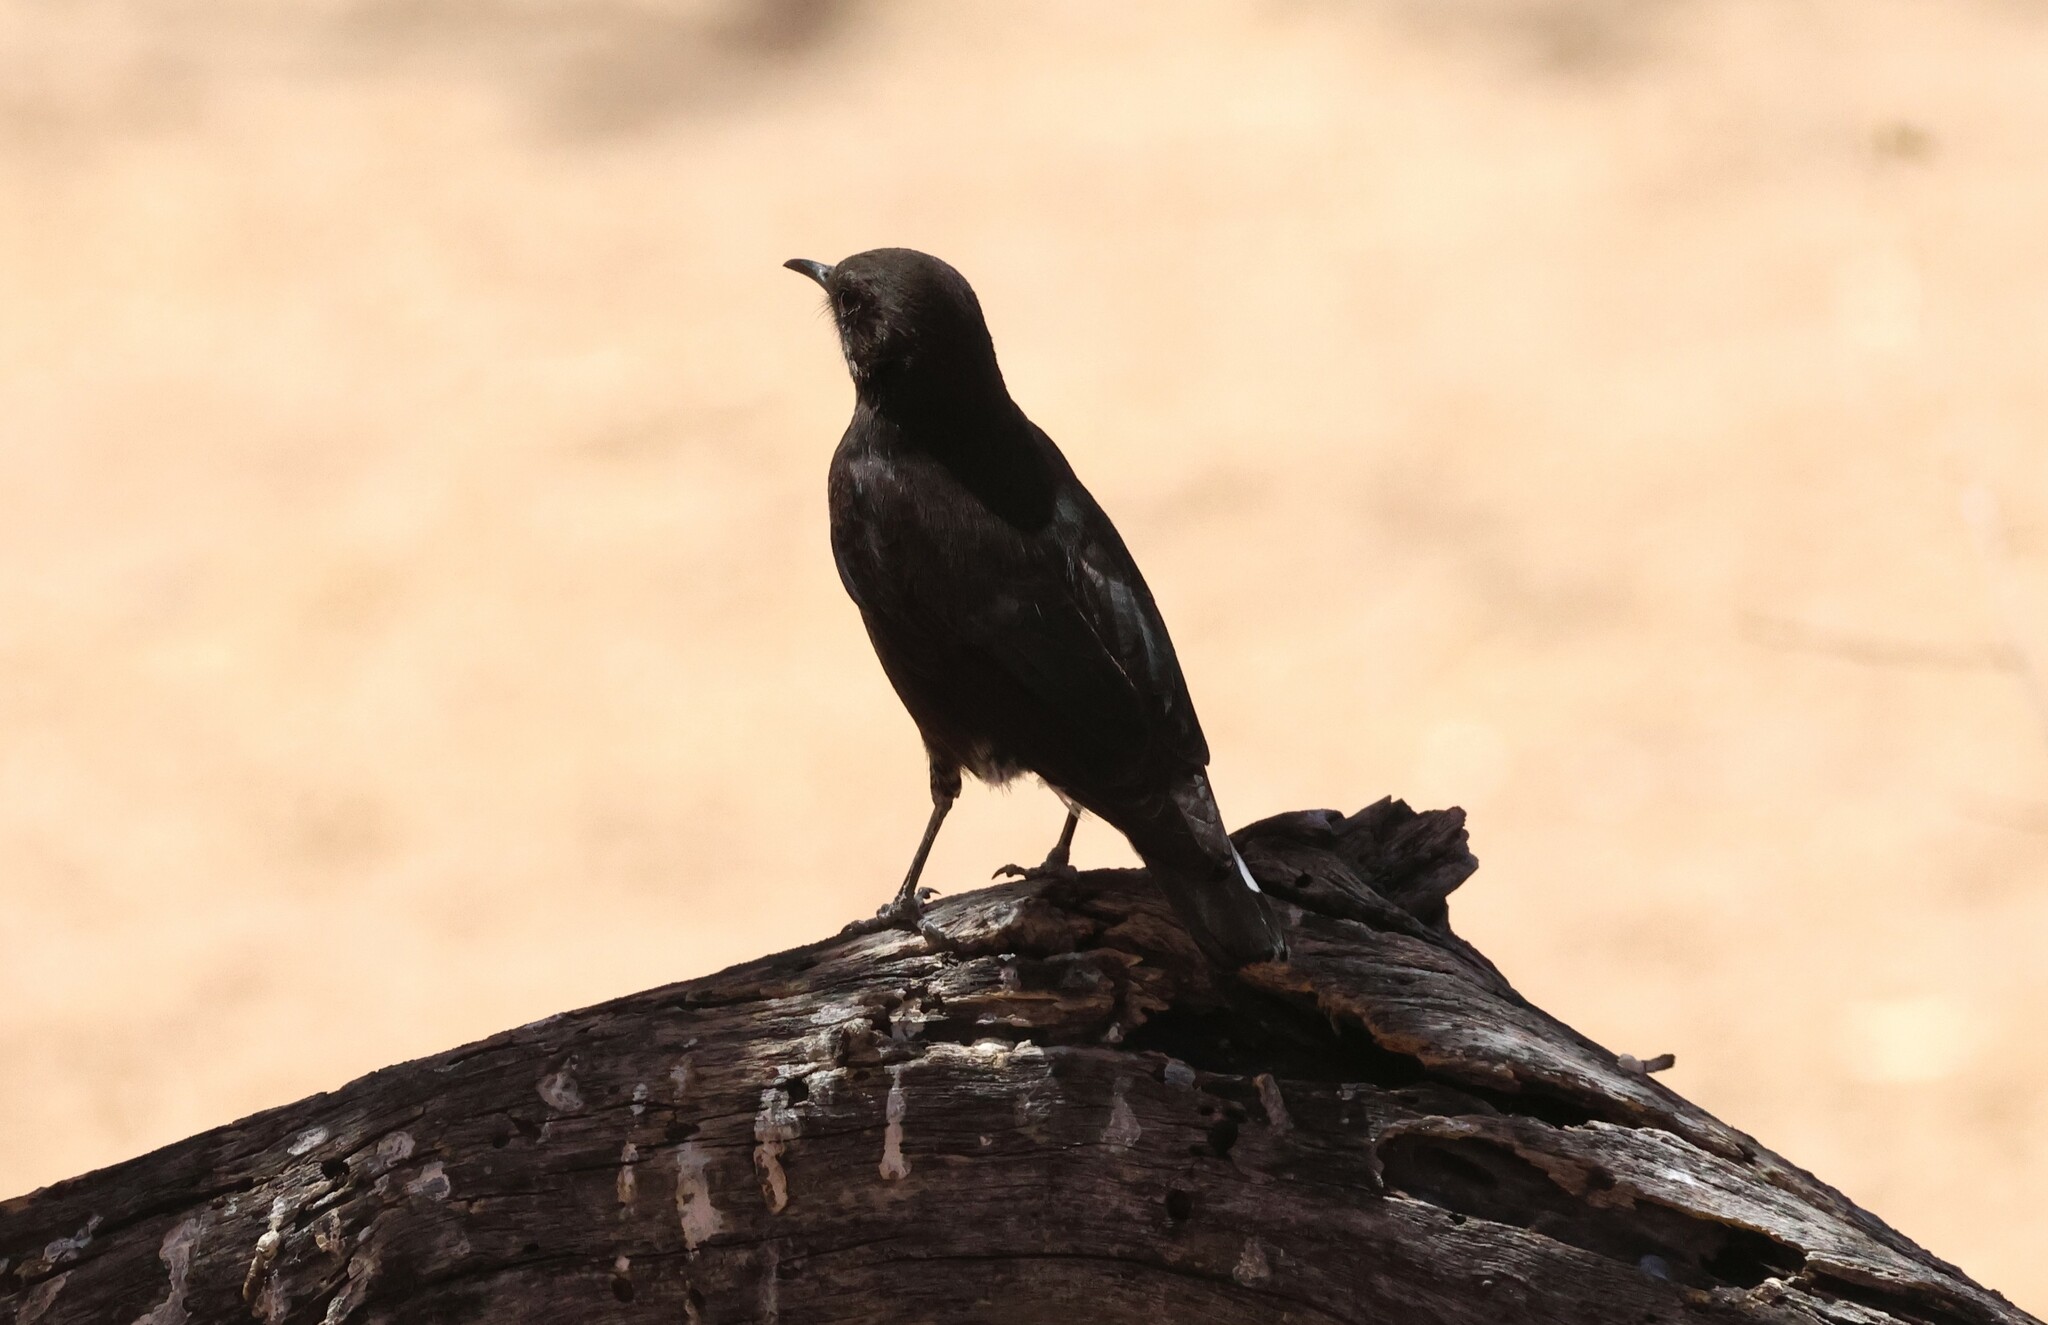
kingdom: Animalia
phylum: Chordata
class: Aves
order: Passeriformes
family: Muscicapidae
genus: Oenanthe
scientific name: Oenanthe monticola
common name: Mountain wheatear
